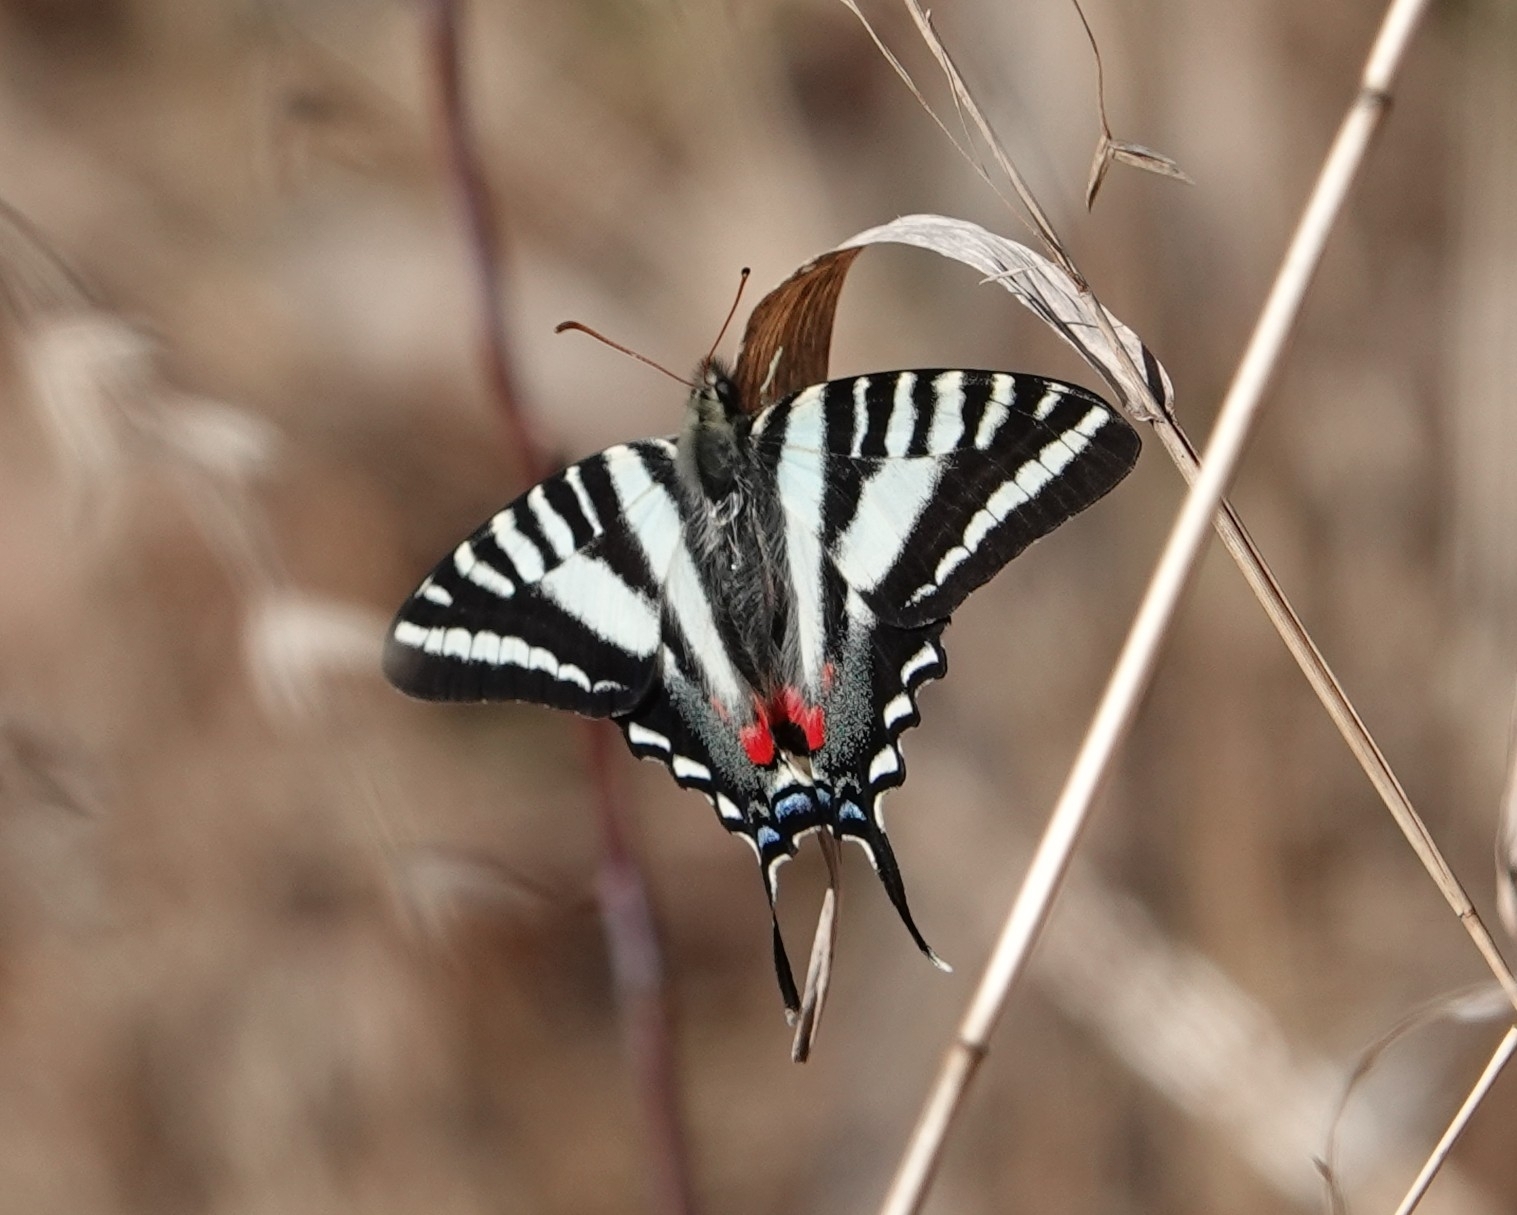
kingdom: Animalia
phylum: Arthropoda
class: Insecta
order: Lepidoptera
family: Papilionidae
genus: Protographium
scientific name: Protographium marcellus
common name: Zebra swallowtail
